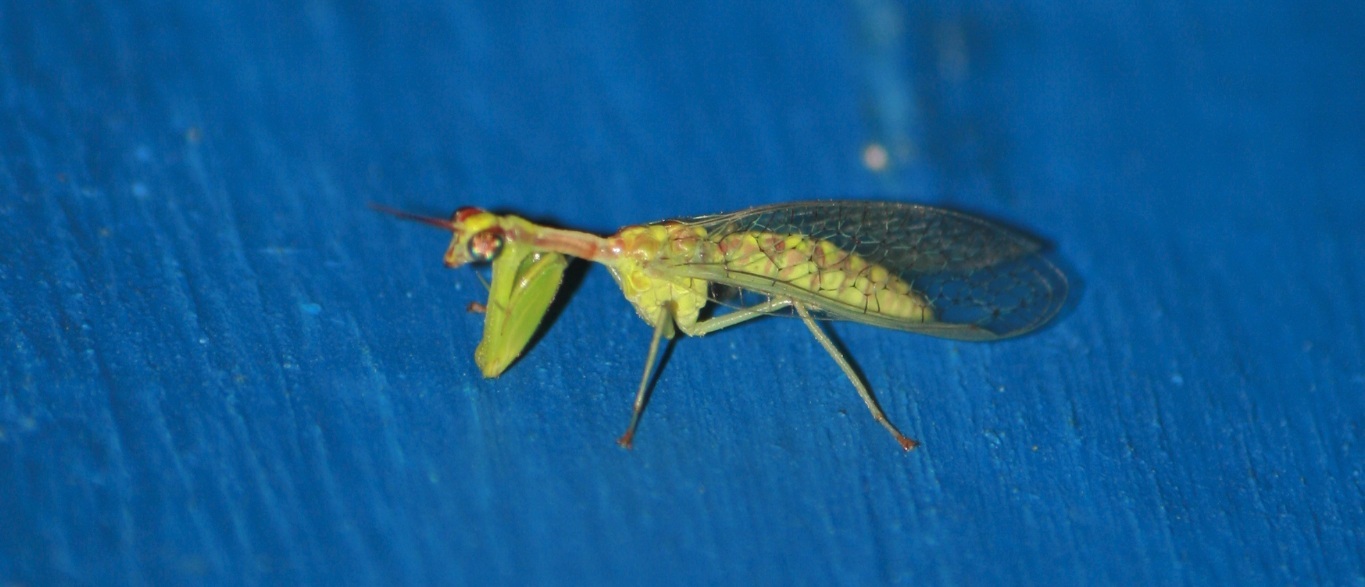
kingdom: Animalia
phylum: Arthropoda
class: Insecta
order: Neuroptera
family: Mantispidae
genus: Zeugomantispa
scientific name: Zeugomantispa minuta
